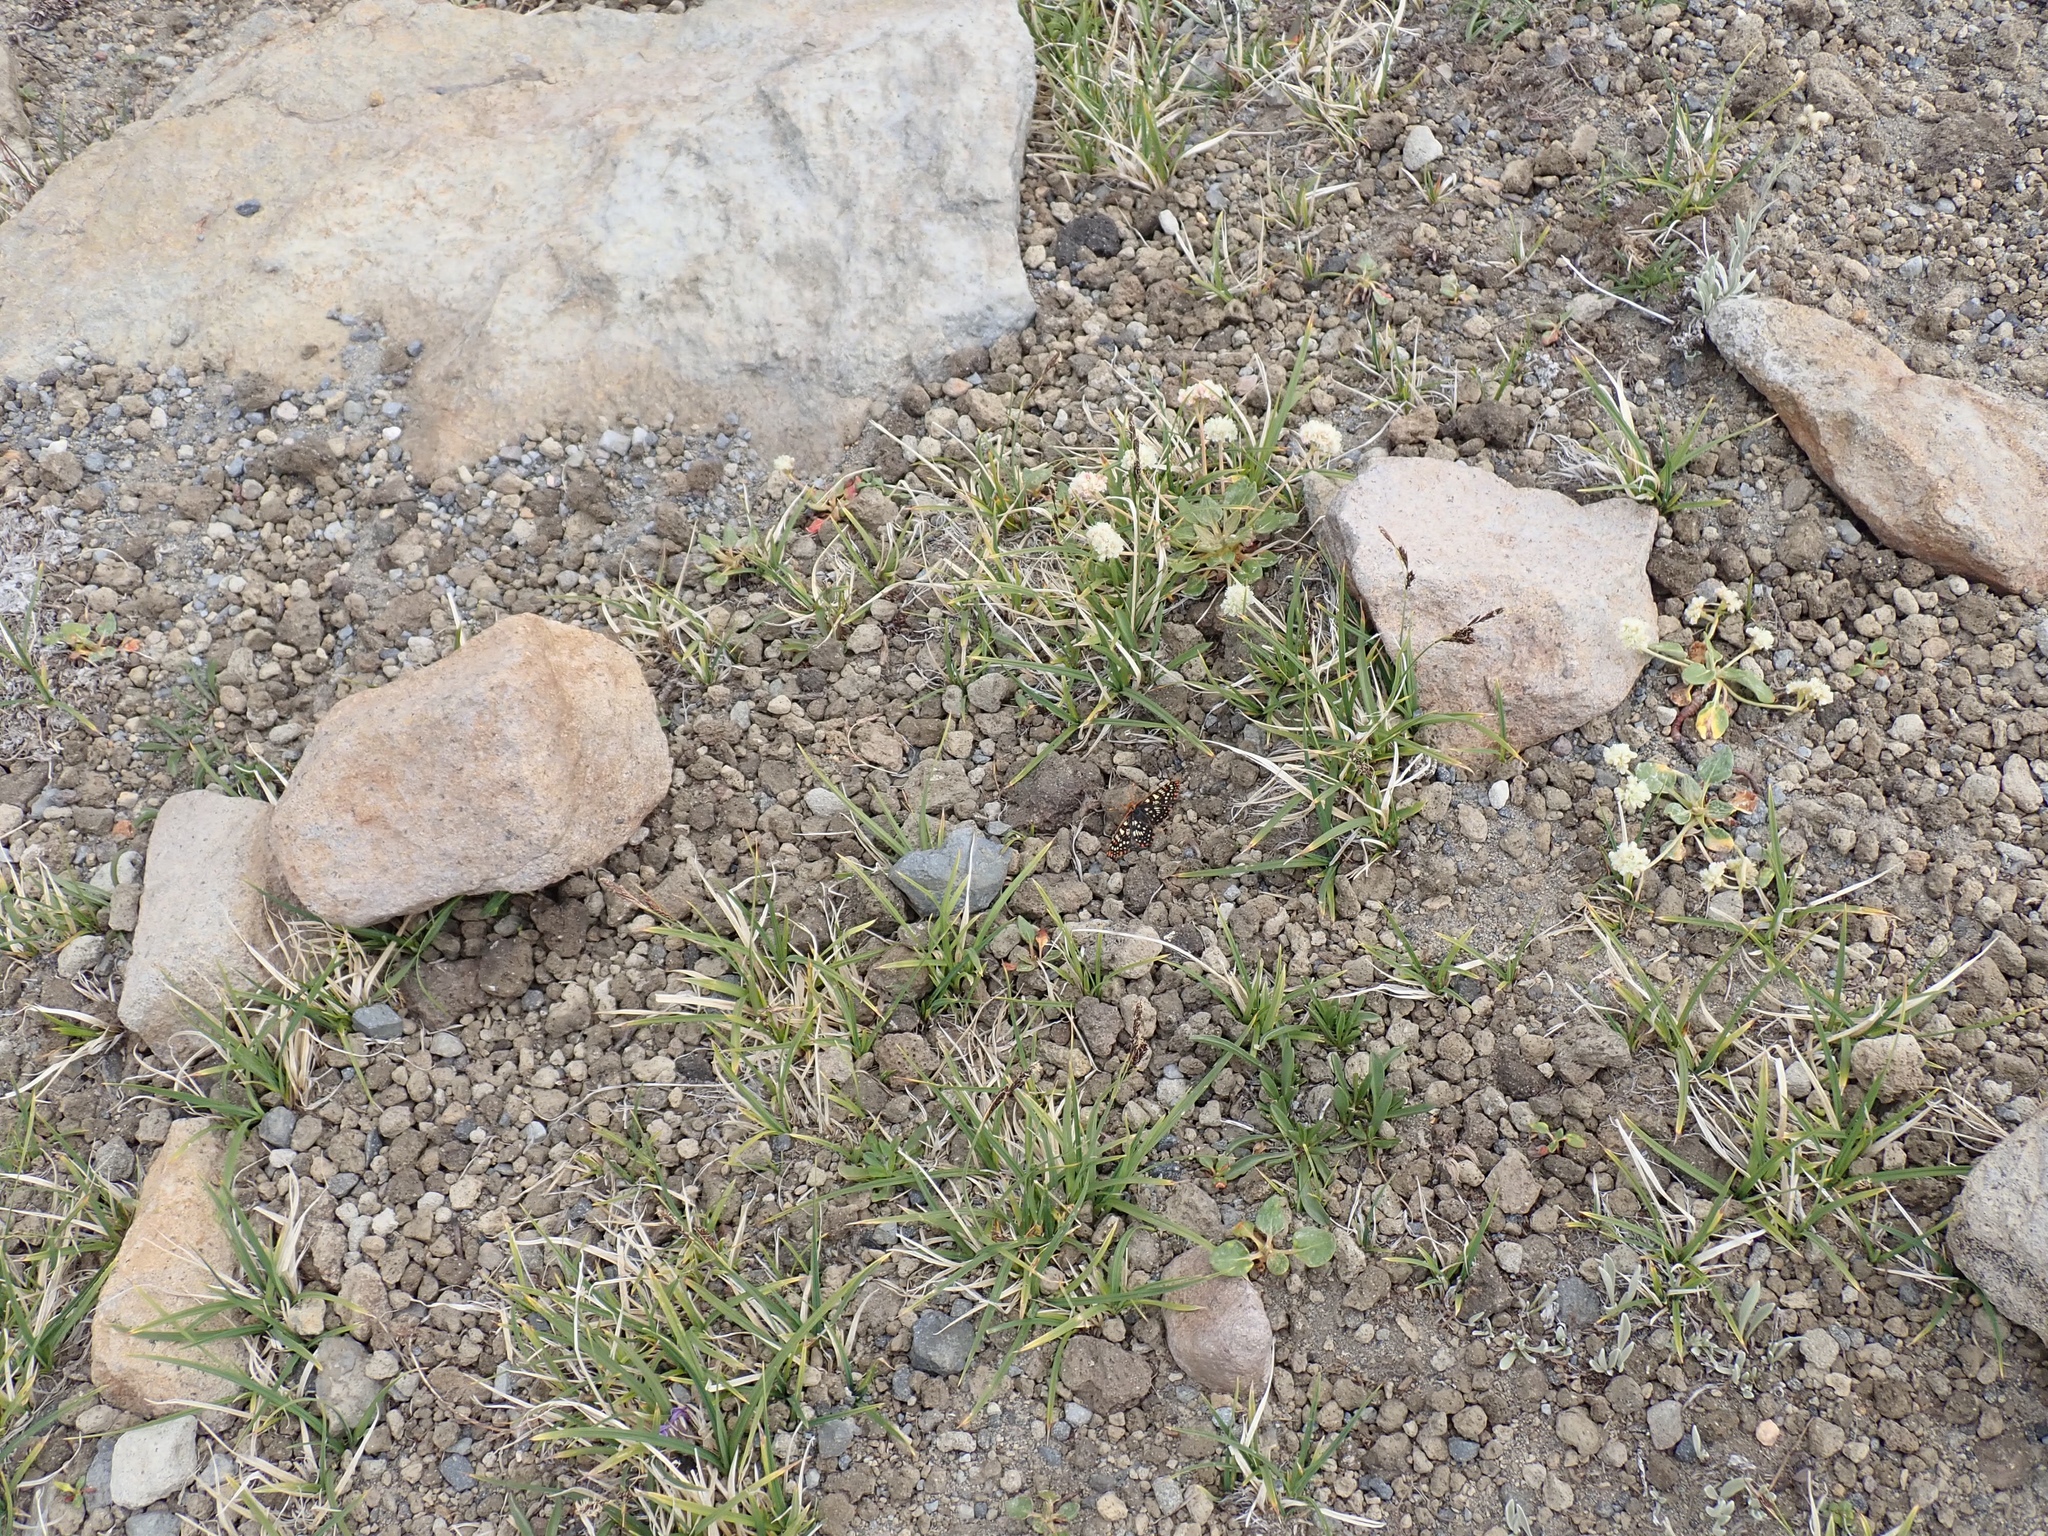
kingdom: Plantae
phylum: Tracheophyta
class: Magnoliopsida
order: Caryophyllales
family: Polygonaceae
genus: Eriogonum
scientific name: Eriogonum pyrolifolium
